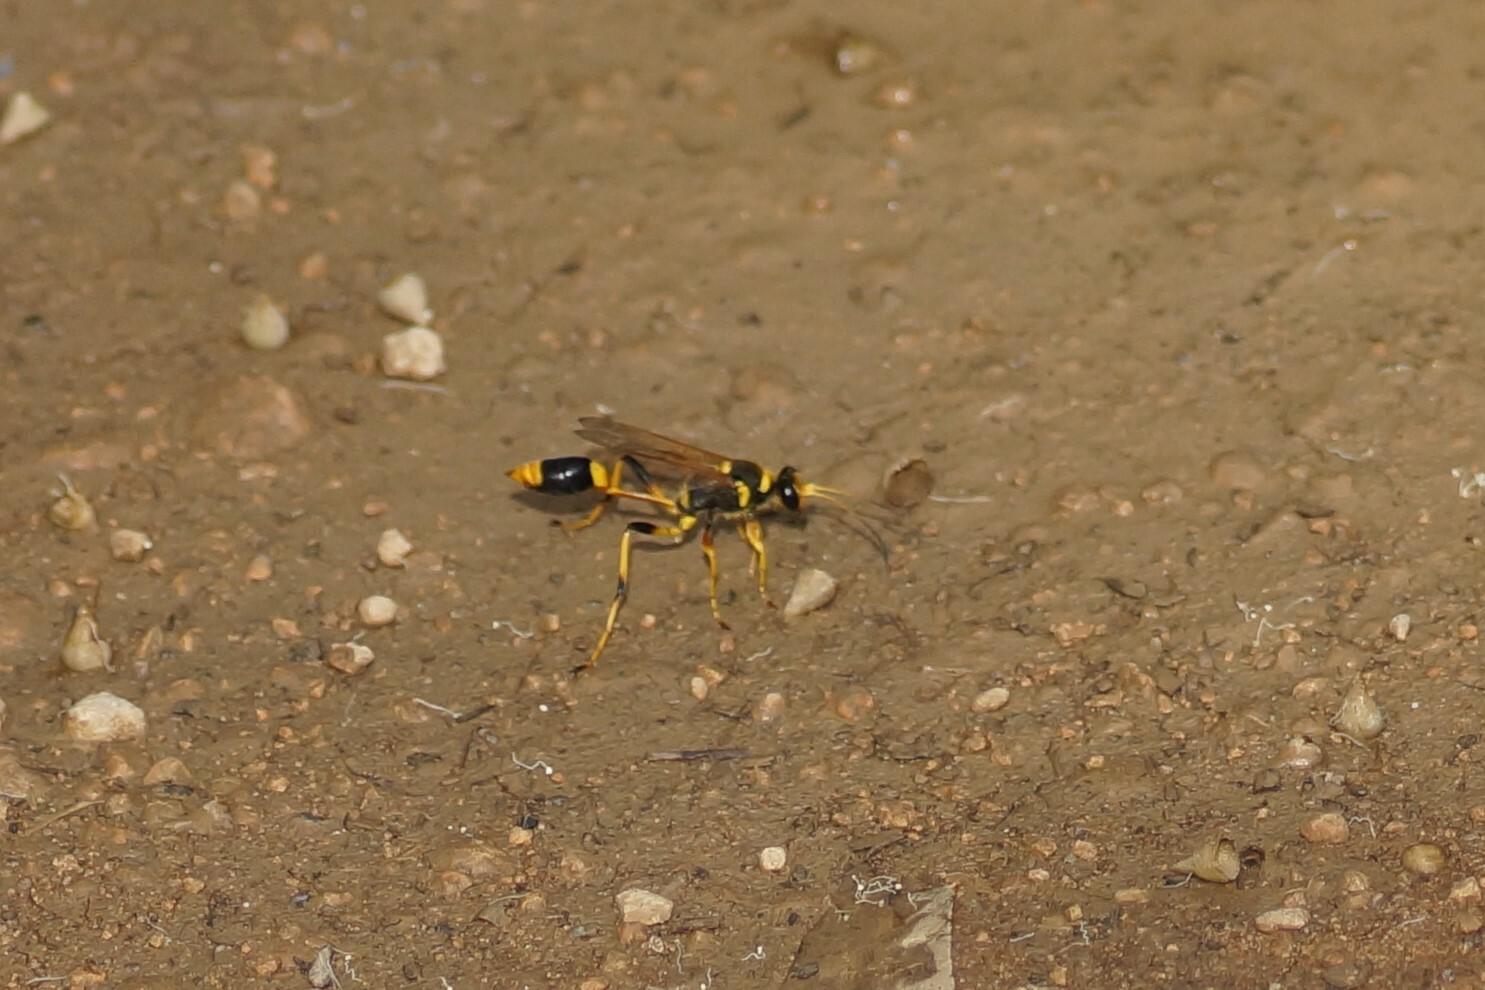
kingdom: Animalia
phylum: Arthropoda
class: Insecta
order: Hymenoptera
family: Sphecidae
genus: Sceliphron
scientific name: Sceliphron laetum
